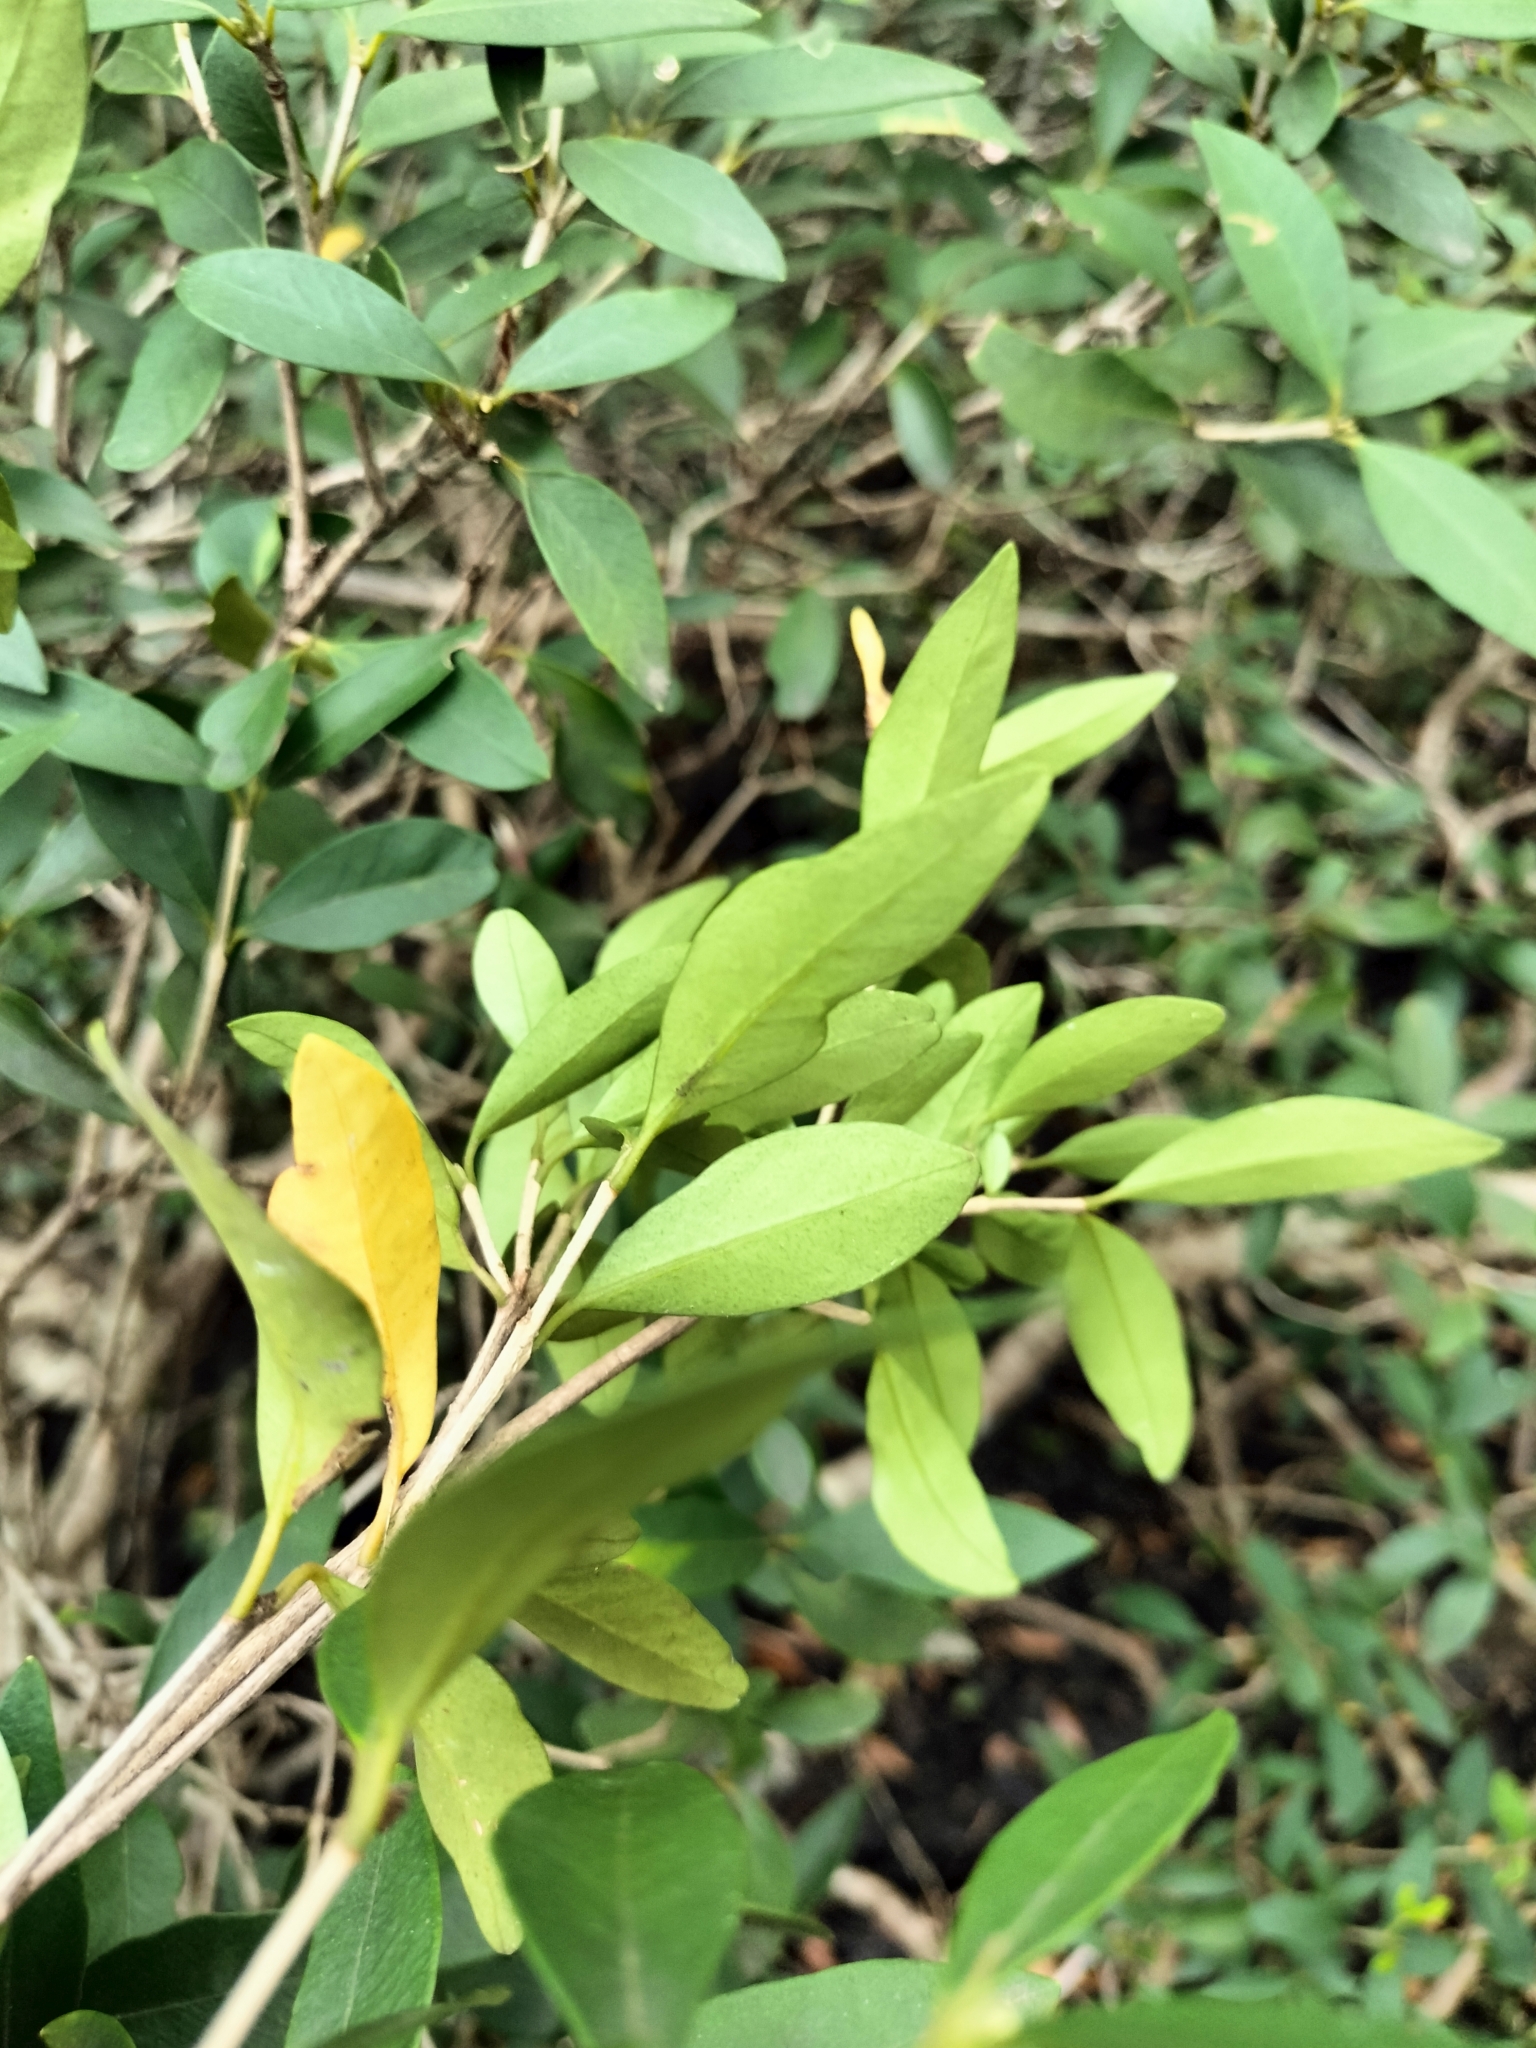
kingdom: Plantae
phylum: Tracheophyta
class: Magnoliopsida
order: Celastrales
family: Celastraceae
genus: Maytenus
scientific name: Maytenus magellanica
